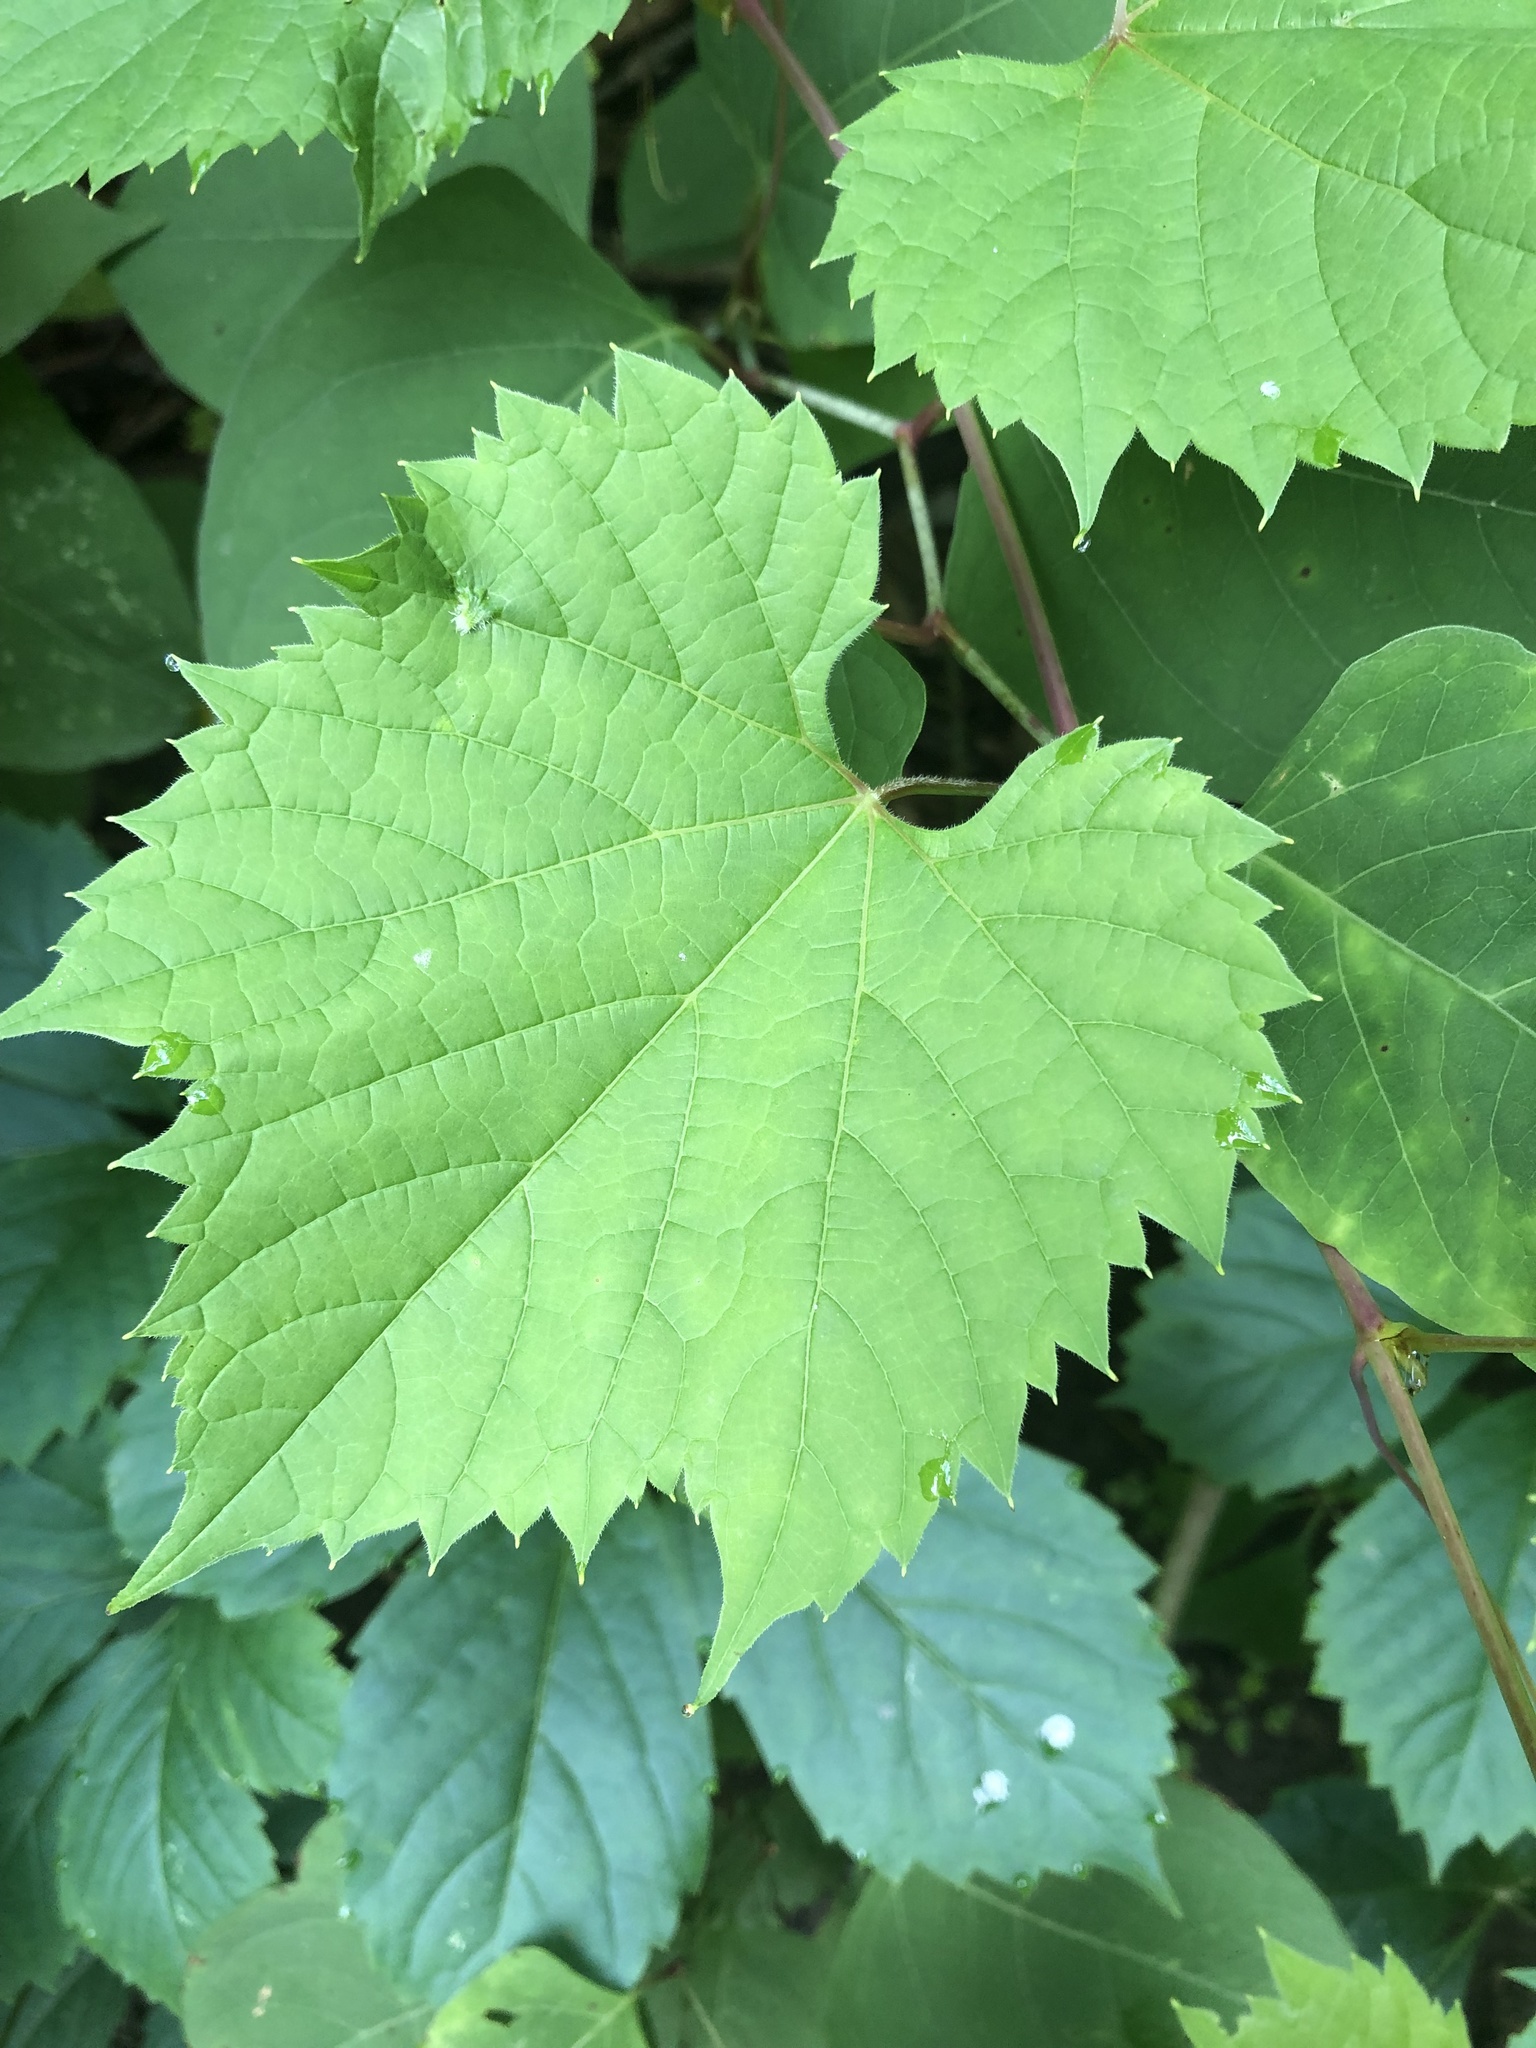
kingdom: Plantae
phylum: Tracheophyta
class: Magnoliopsida
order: Vitales
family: Vitaceae
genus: Vitis
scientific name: Vitis riparia
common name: Frost grape
